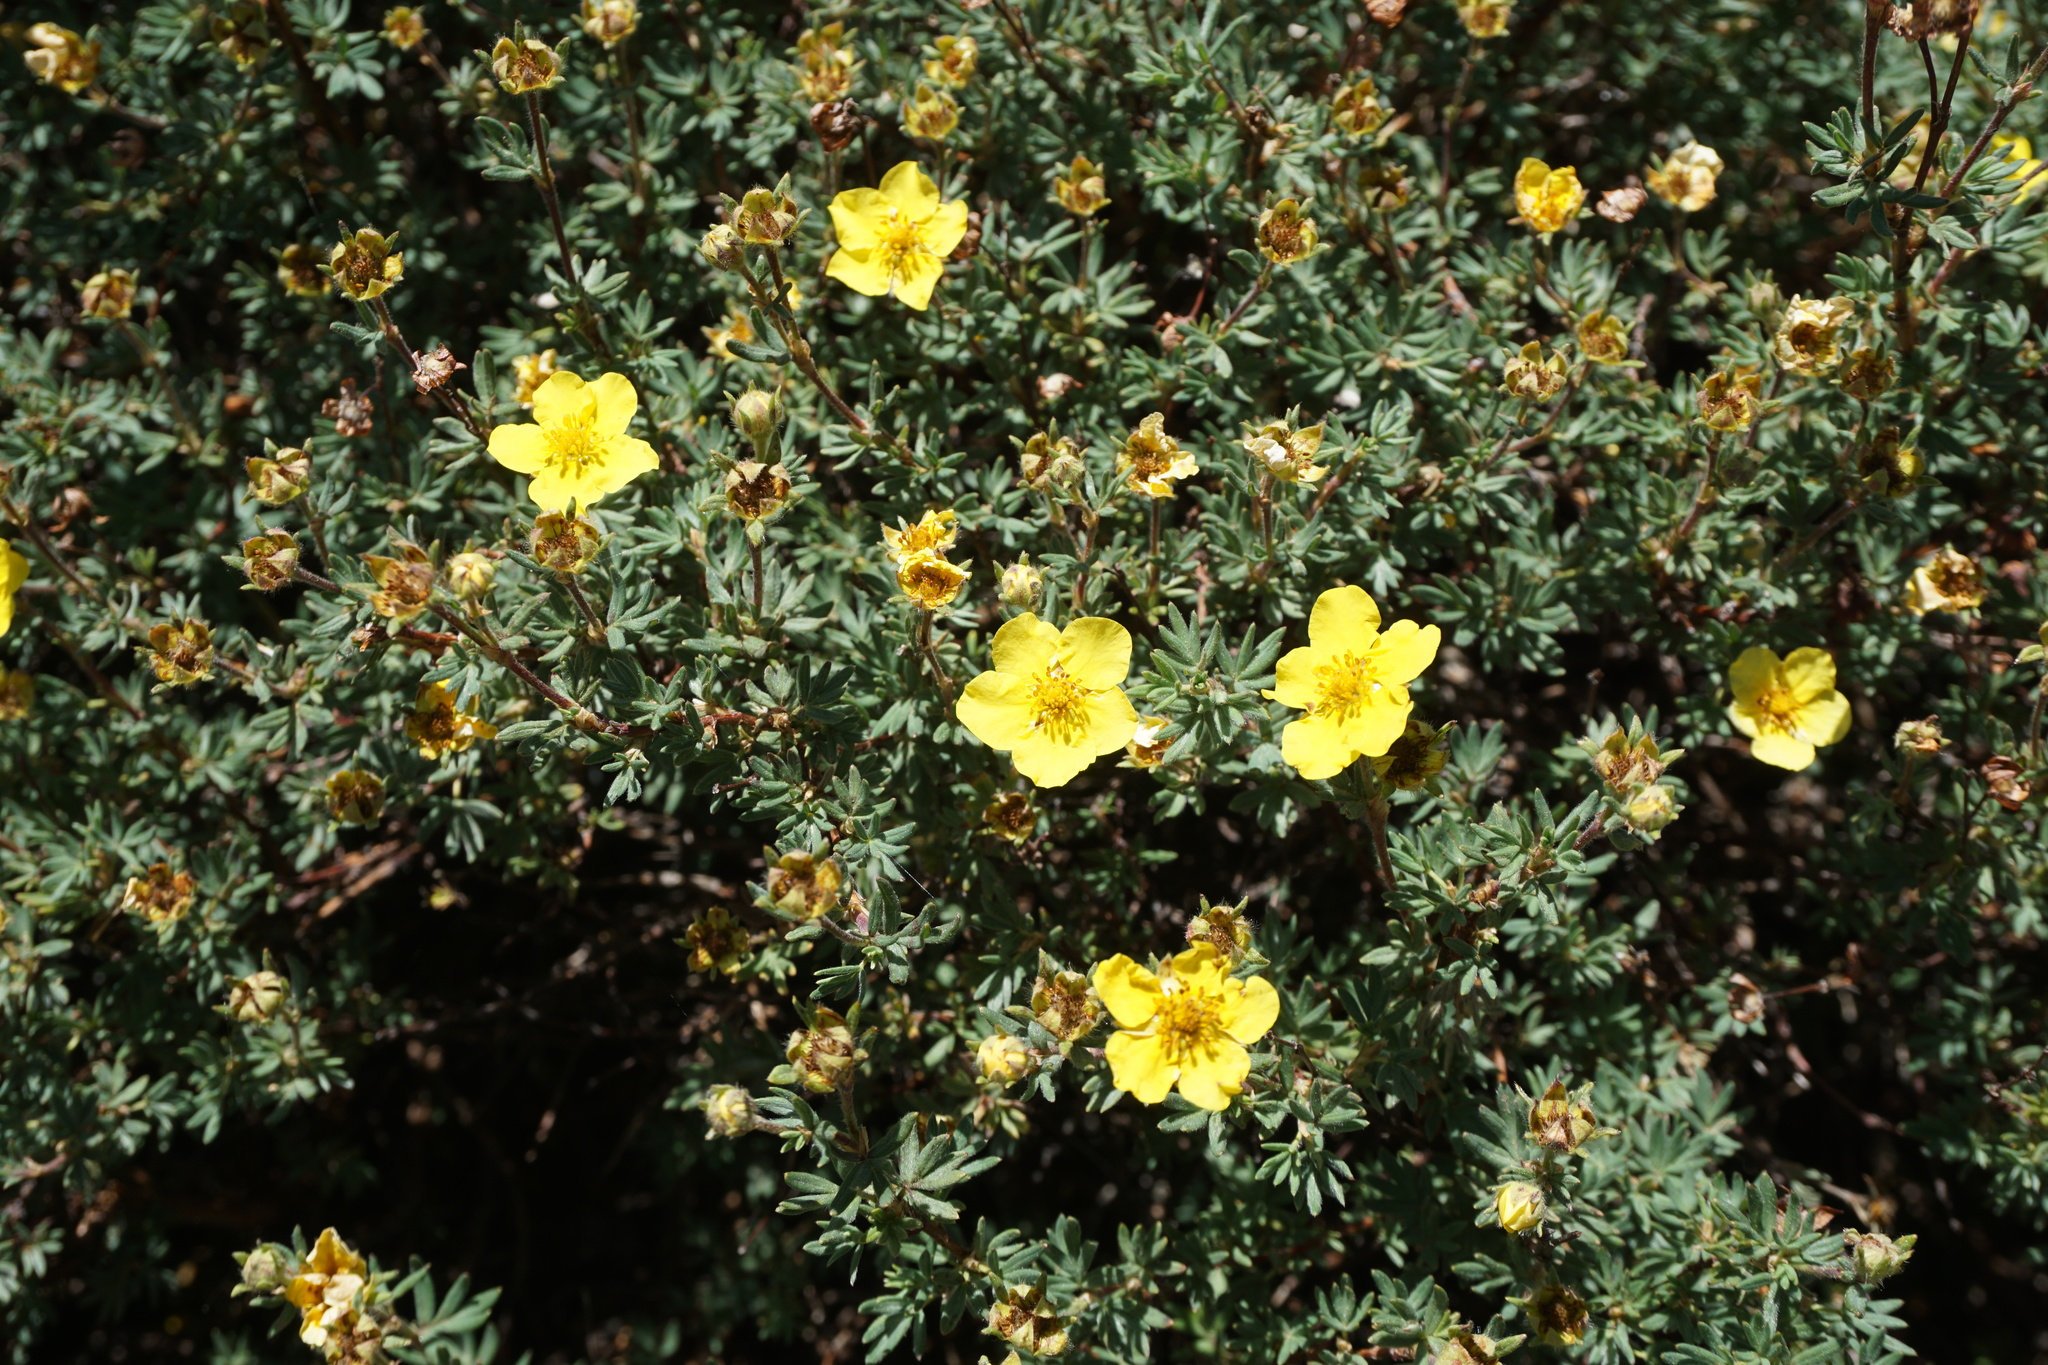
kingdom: Plantae
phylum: Tracheophyta
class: Magnoliopsida
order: Rosales
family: Rosaceae
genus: Dasiphora
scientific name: Dasiphora fruticosa
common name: Shrubby cinquefoil
